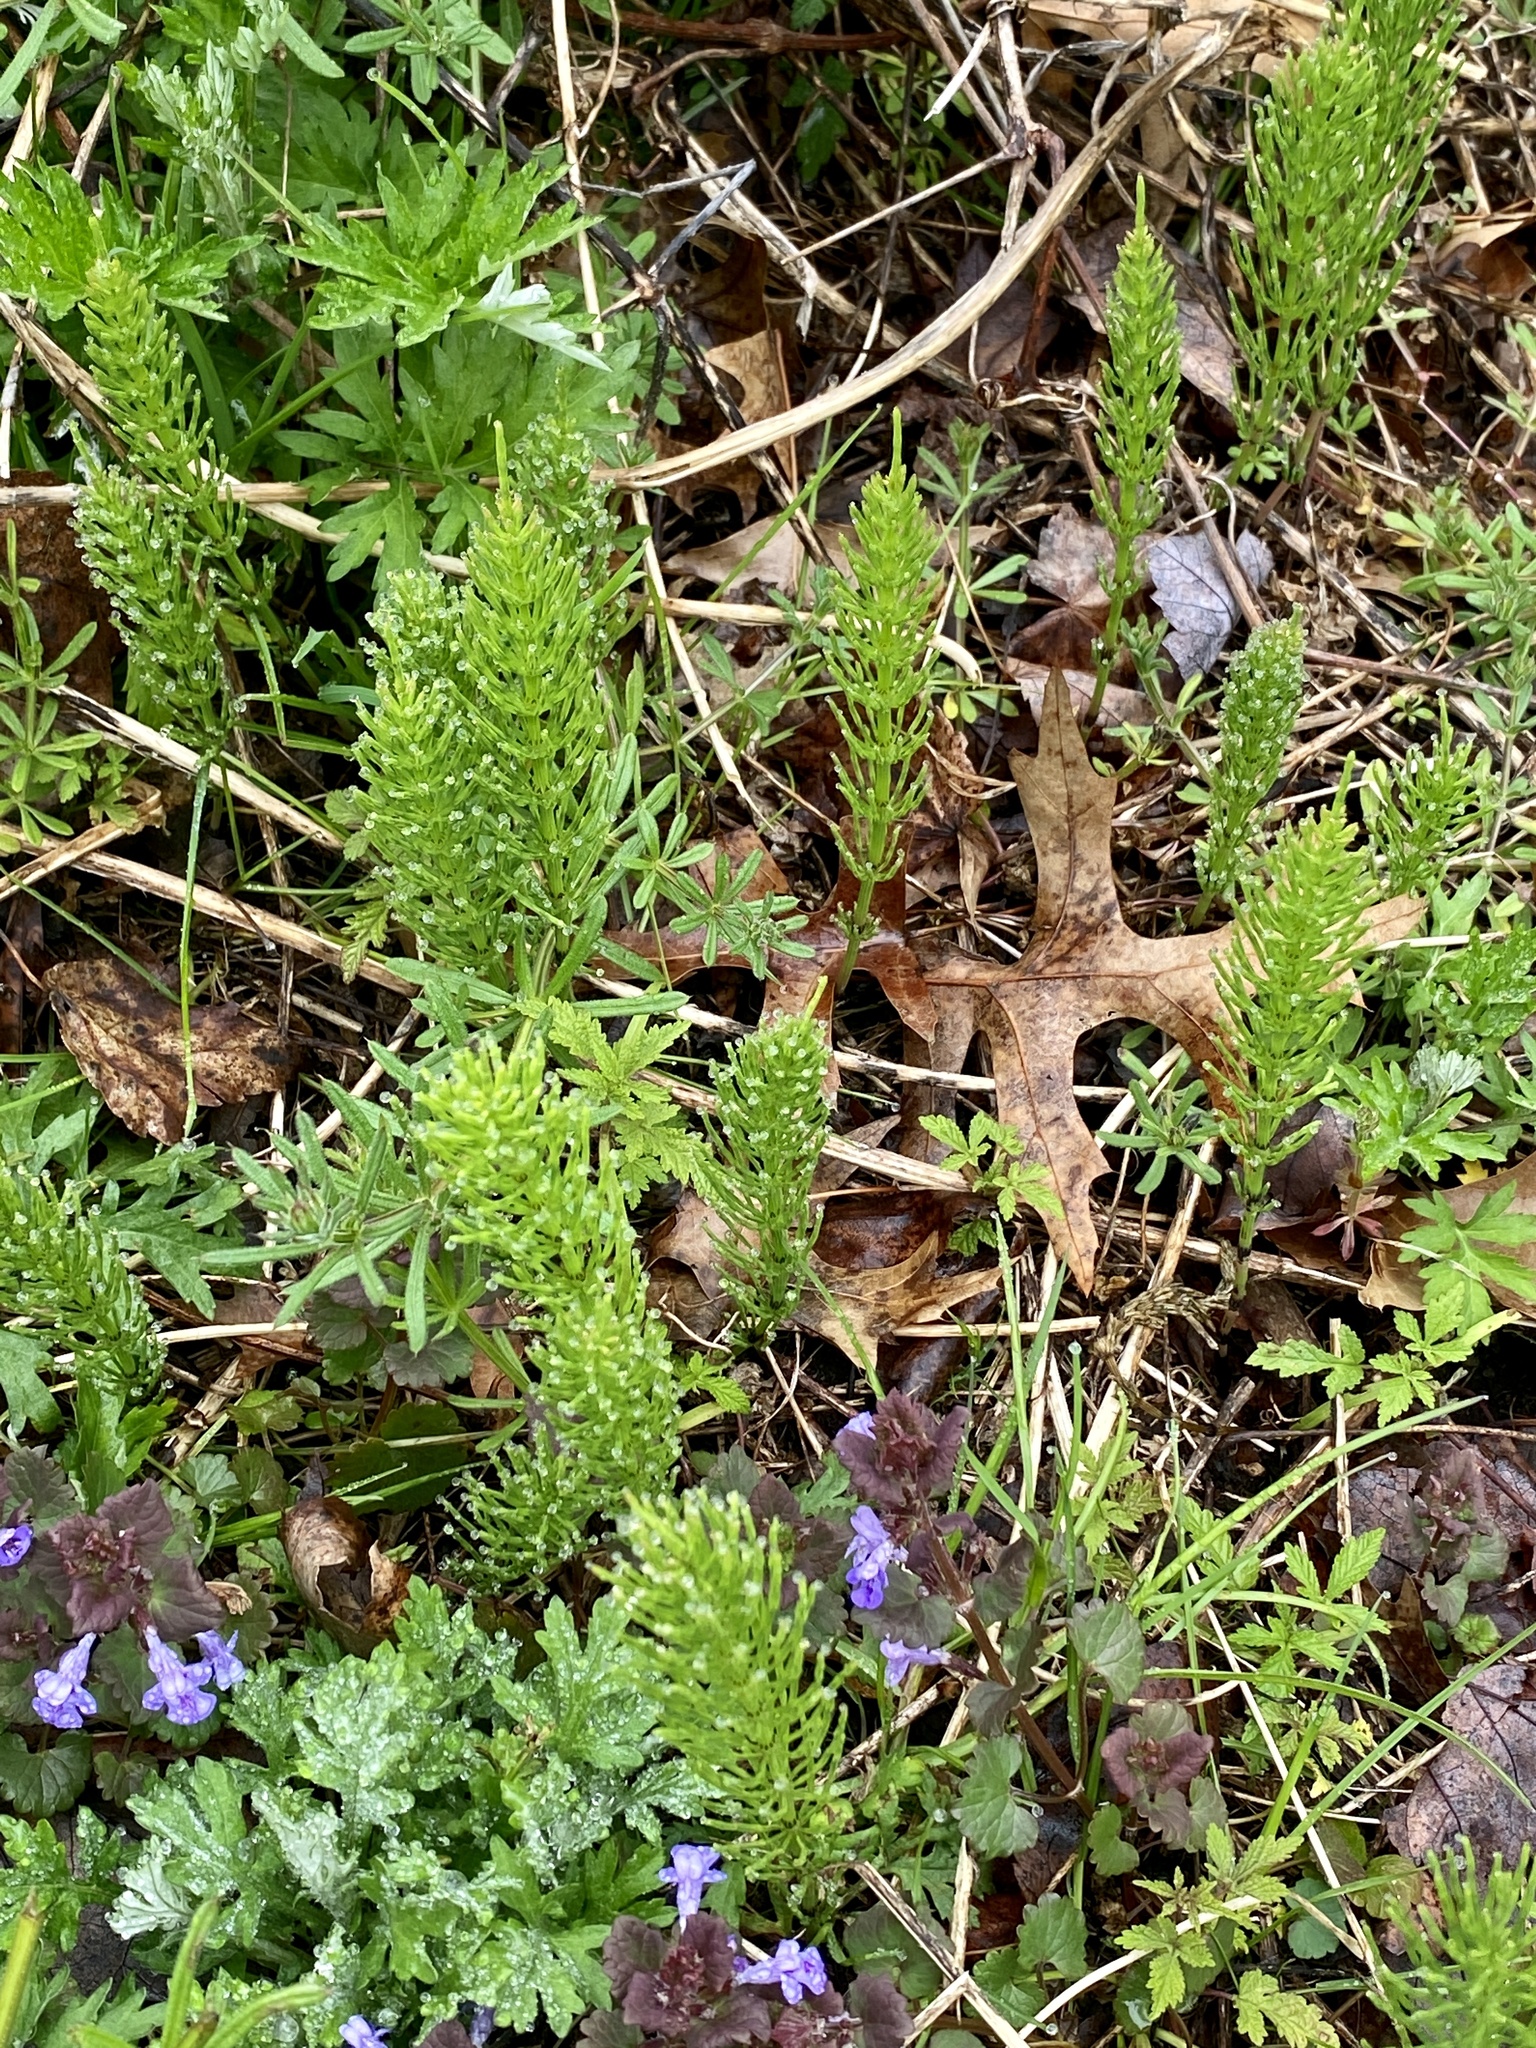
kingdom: Plantae
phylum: Tracheophyta
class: Polypodiopsida
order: Equisetales
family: Equisetaceae
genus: Equisetum
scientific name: Equisetum arvense
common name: Field horsetail
